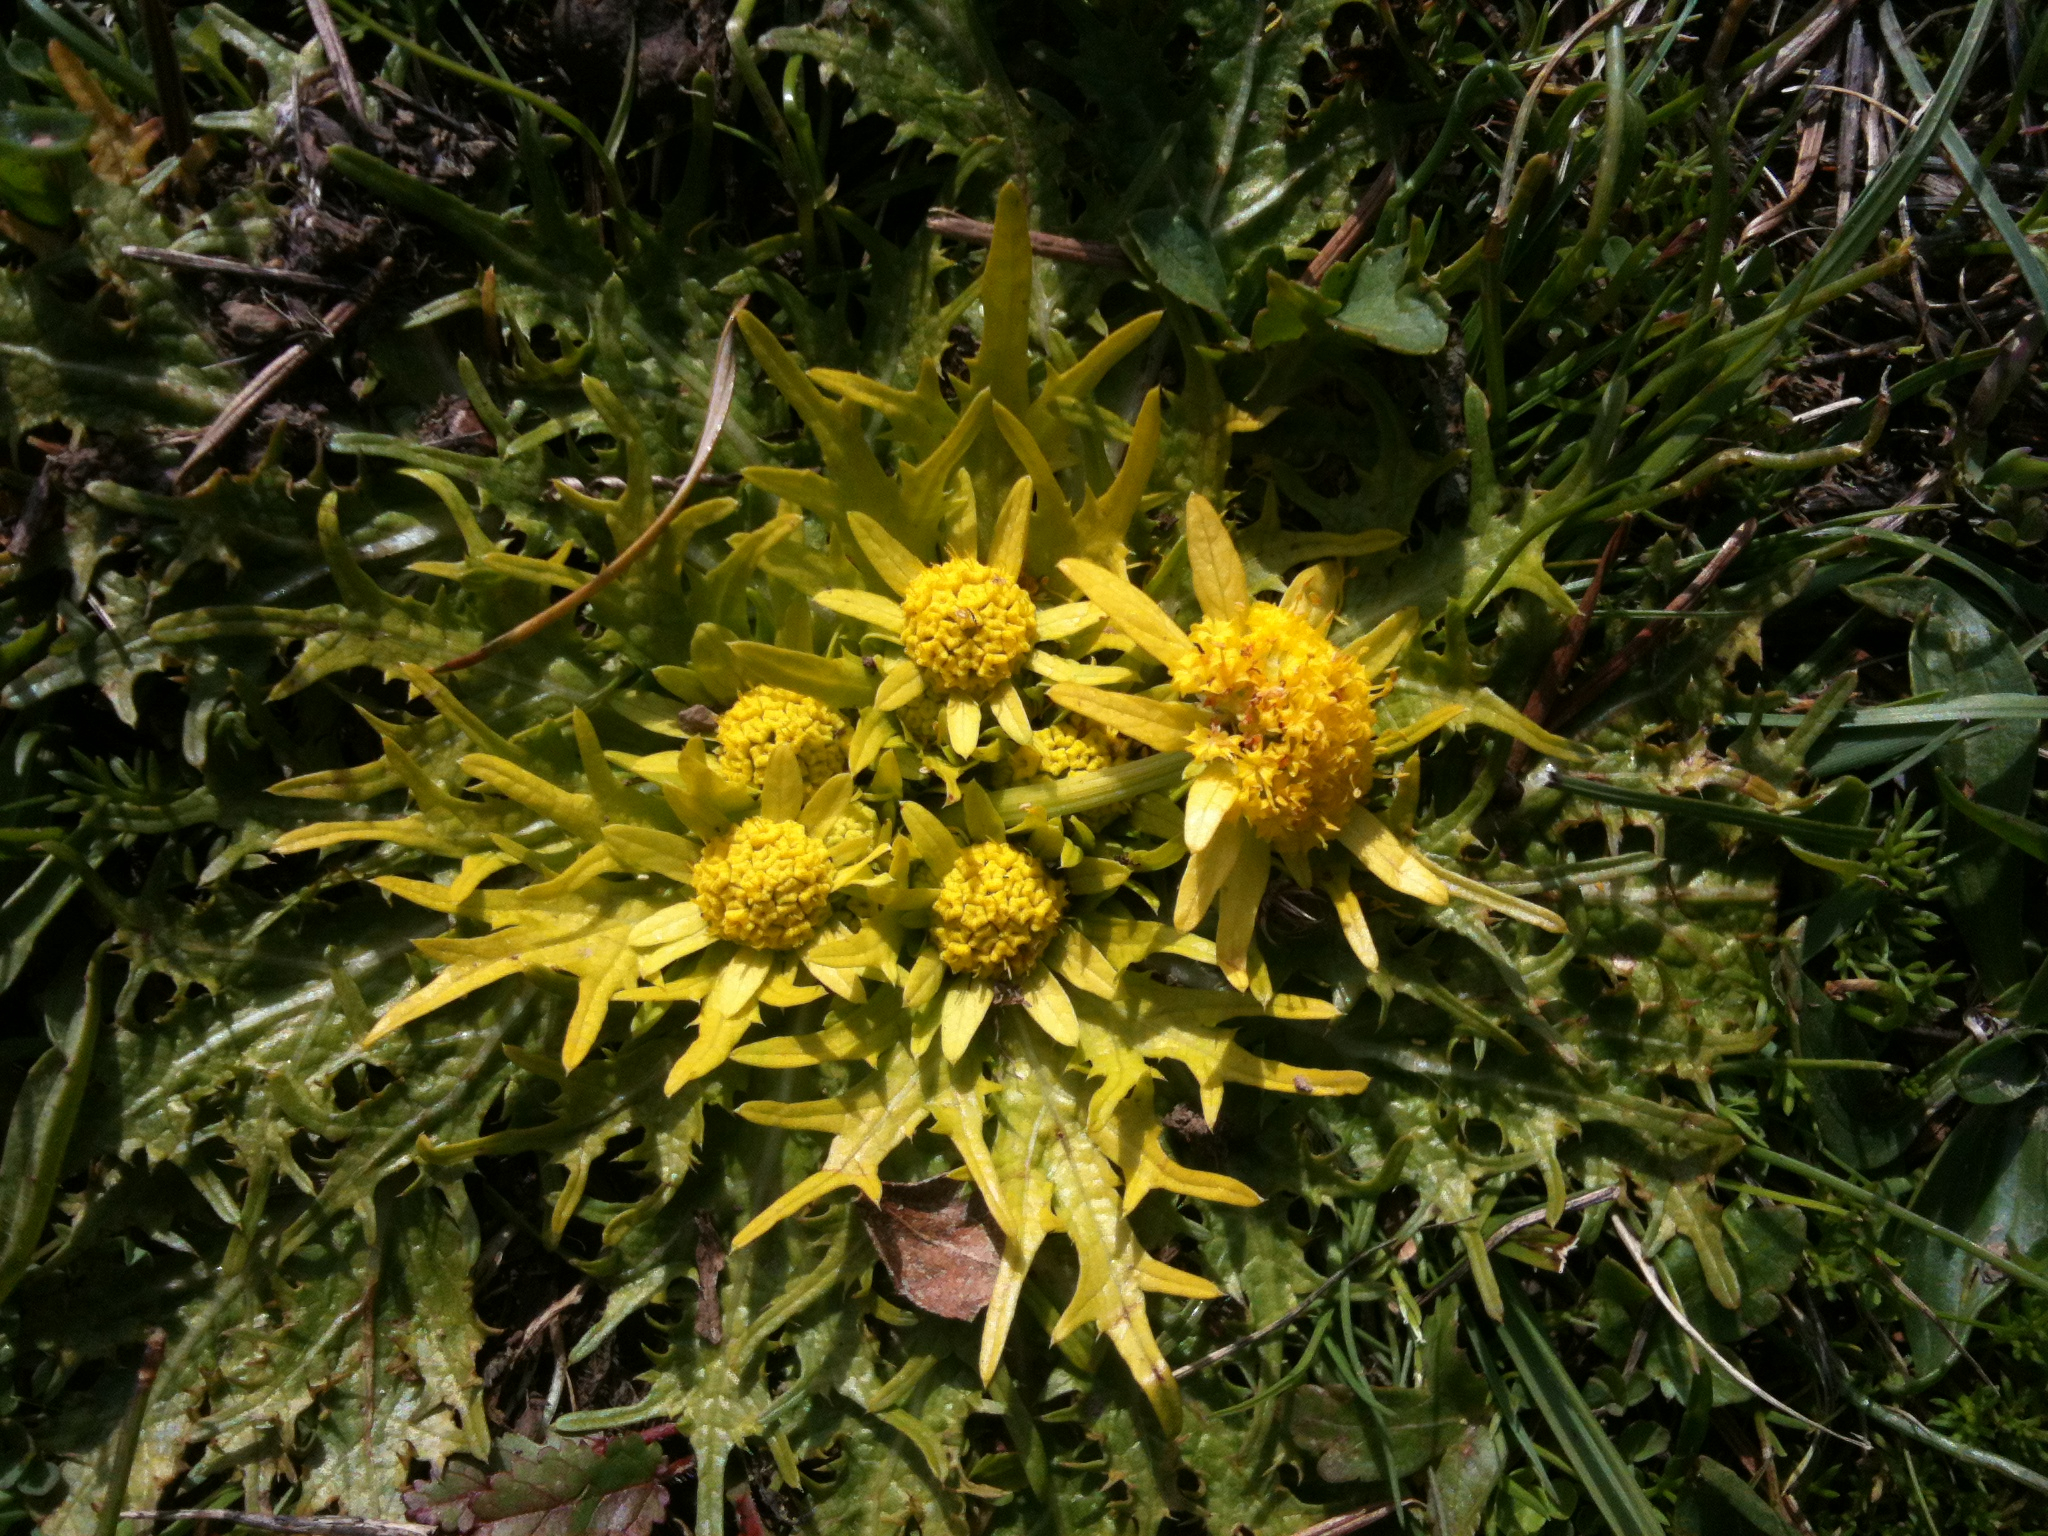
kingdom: Plantae
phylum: Tracheophyta
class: Magnoliopsida
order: Apiales
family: Apiaceae
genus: Sanicula
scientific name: Sanicula arctopoides
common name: Footsteps-of-spring
